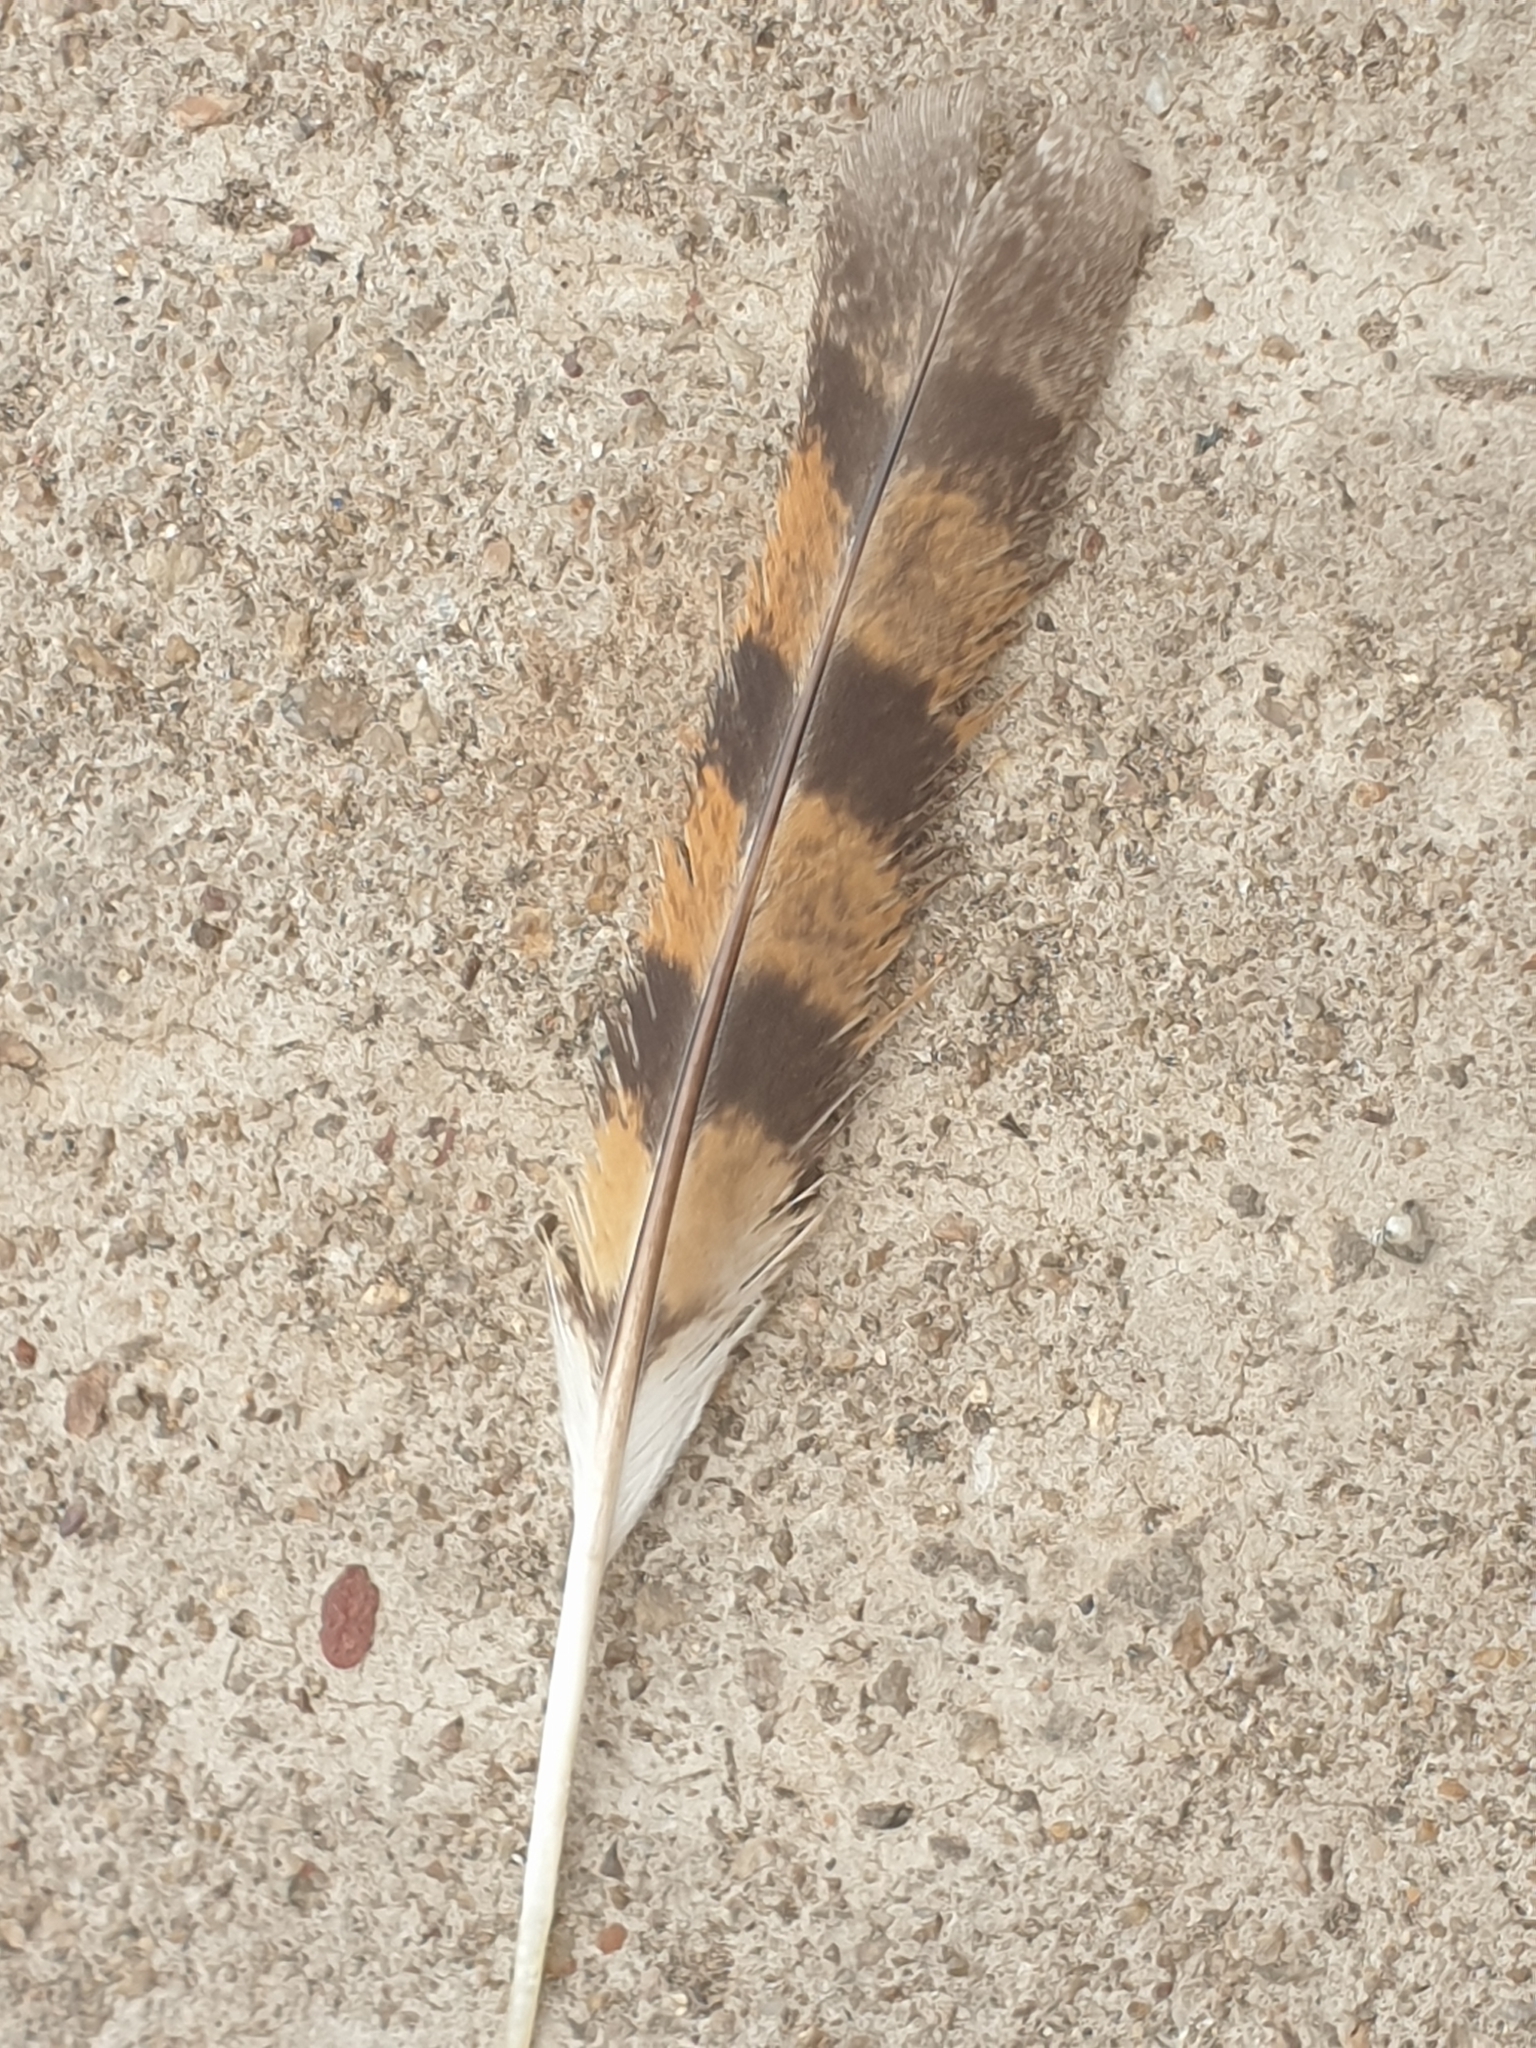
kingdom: Animalia
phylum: Chordata
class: Aves
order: Strigiformes
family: Tytonidae
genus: Tyto
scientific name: Tyto alba
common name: Barn owl
